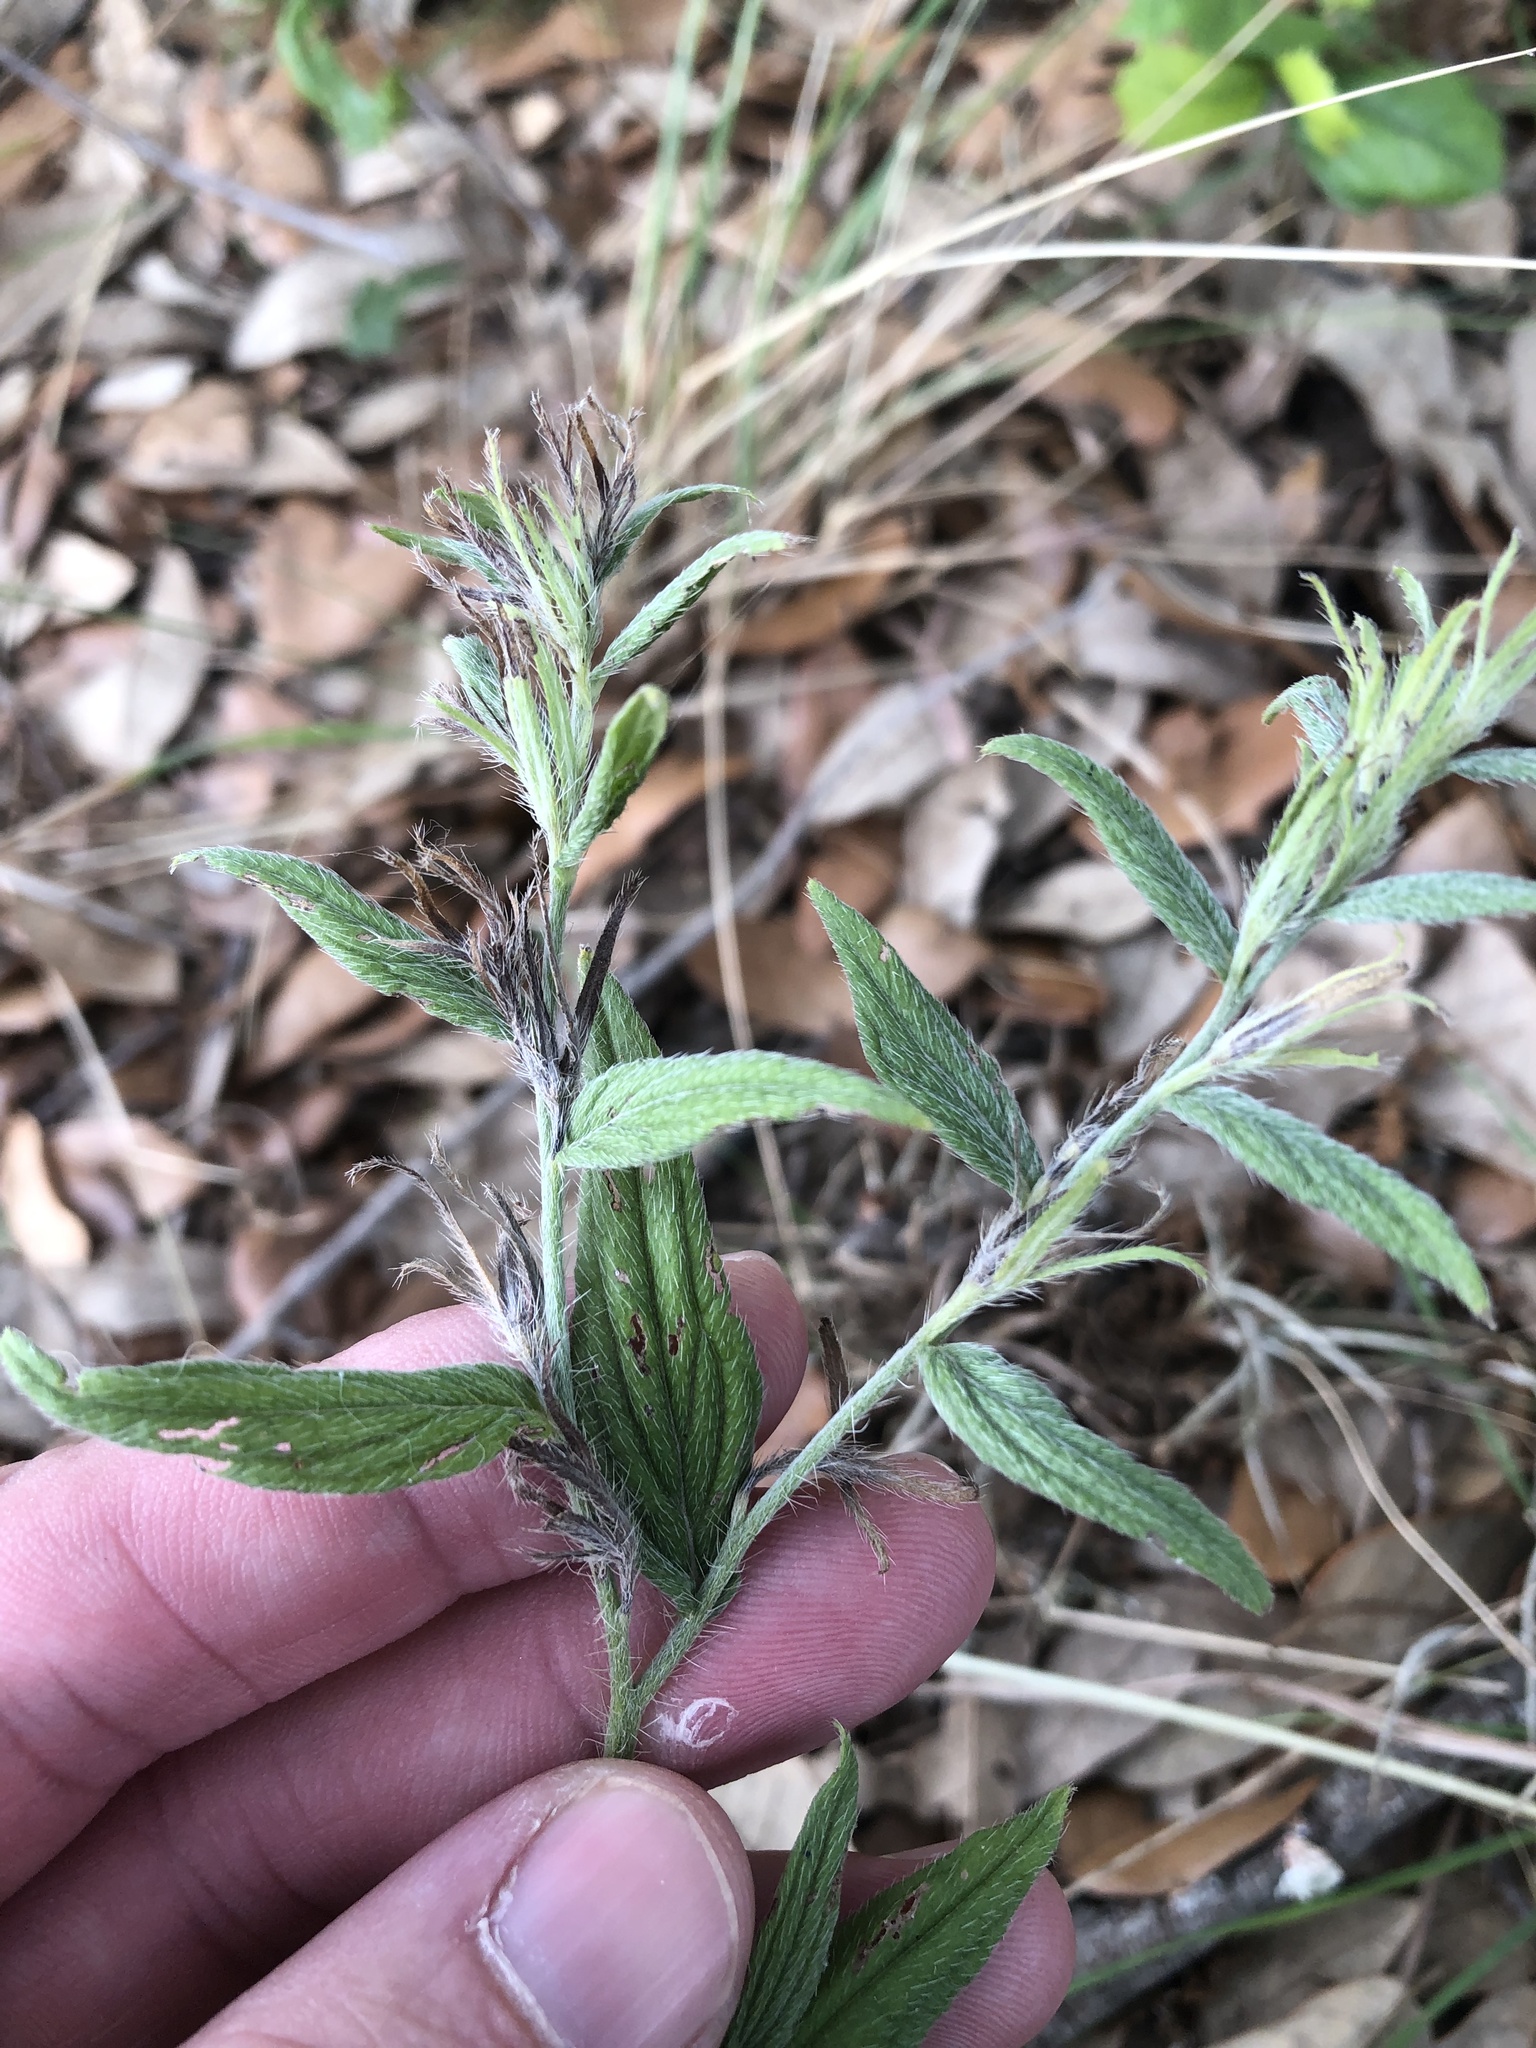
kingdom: Plantae
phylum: Tracheophyta
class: Magnoliopsida
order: Boraginales
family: Boraginaceae
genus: Lithospermum
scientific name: Lithospermum caroliniense
